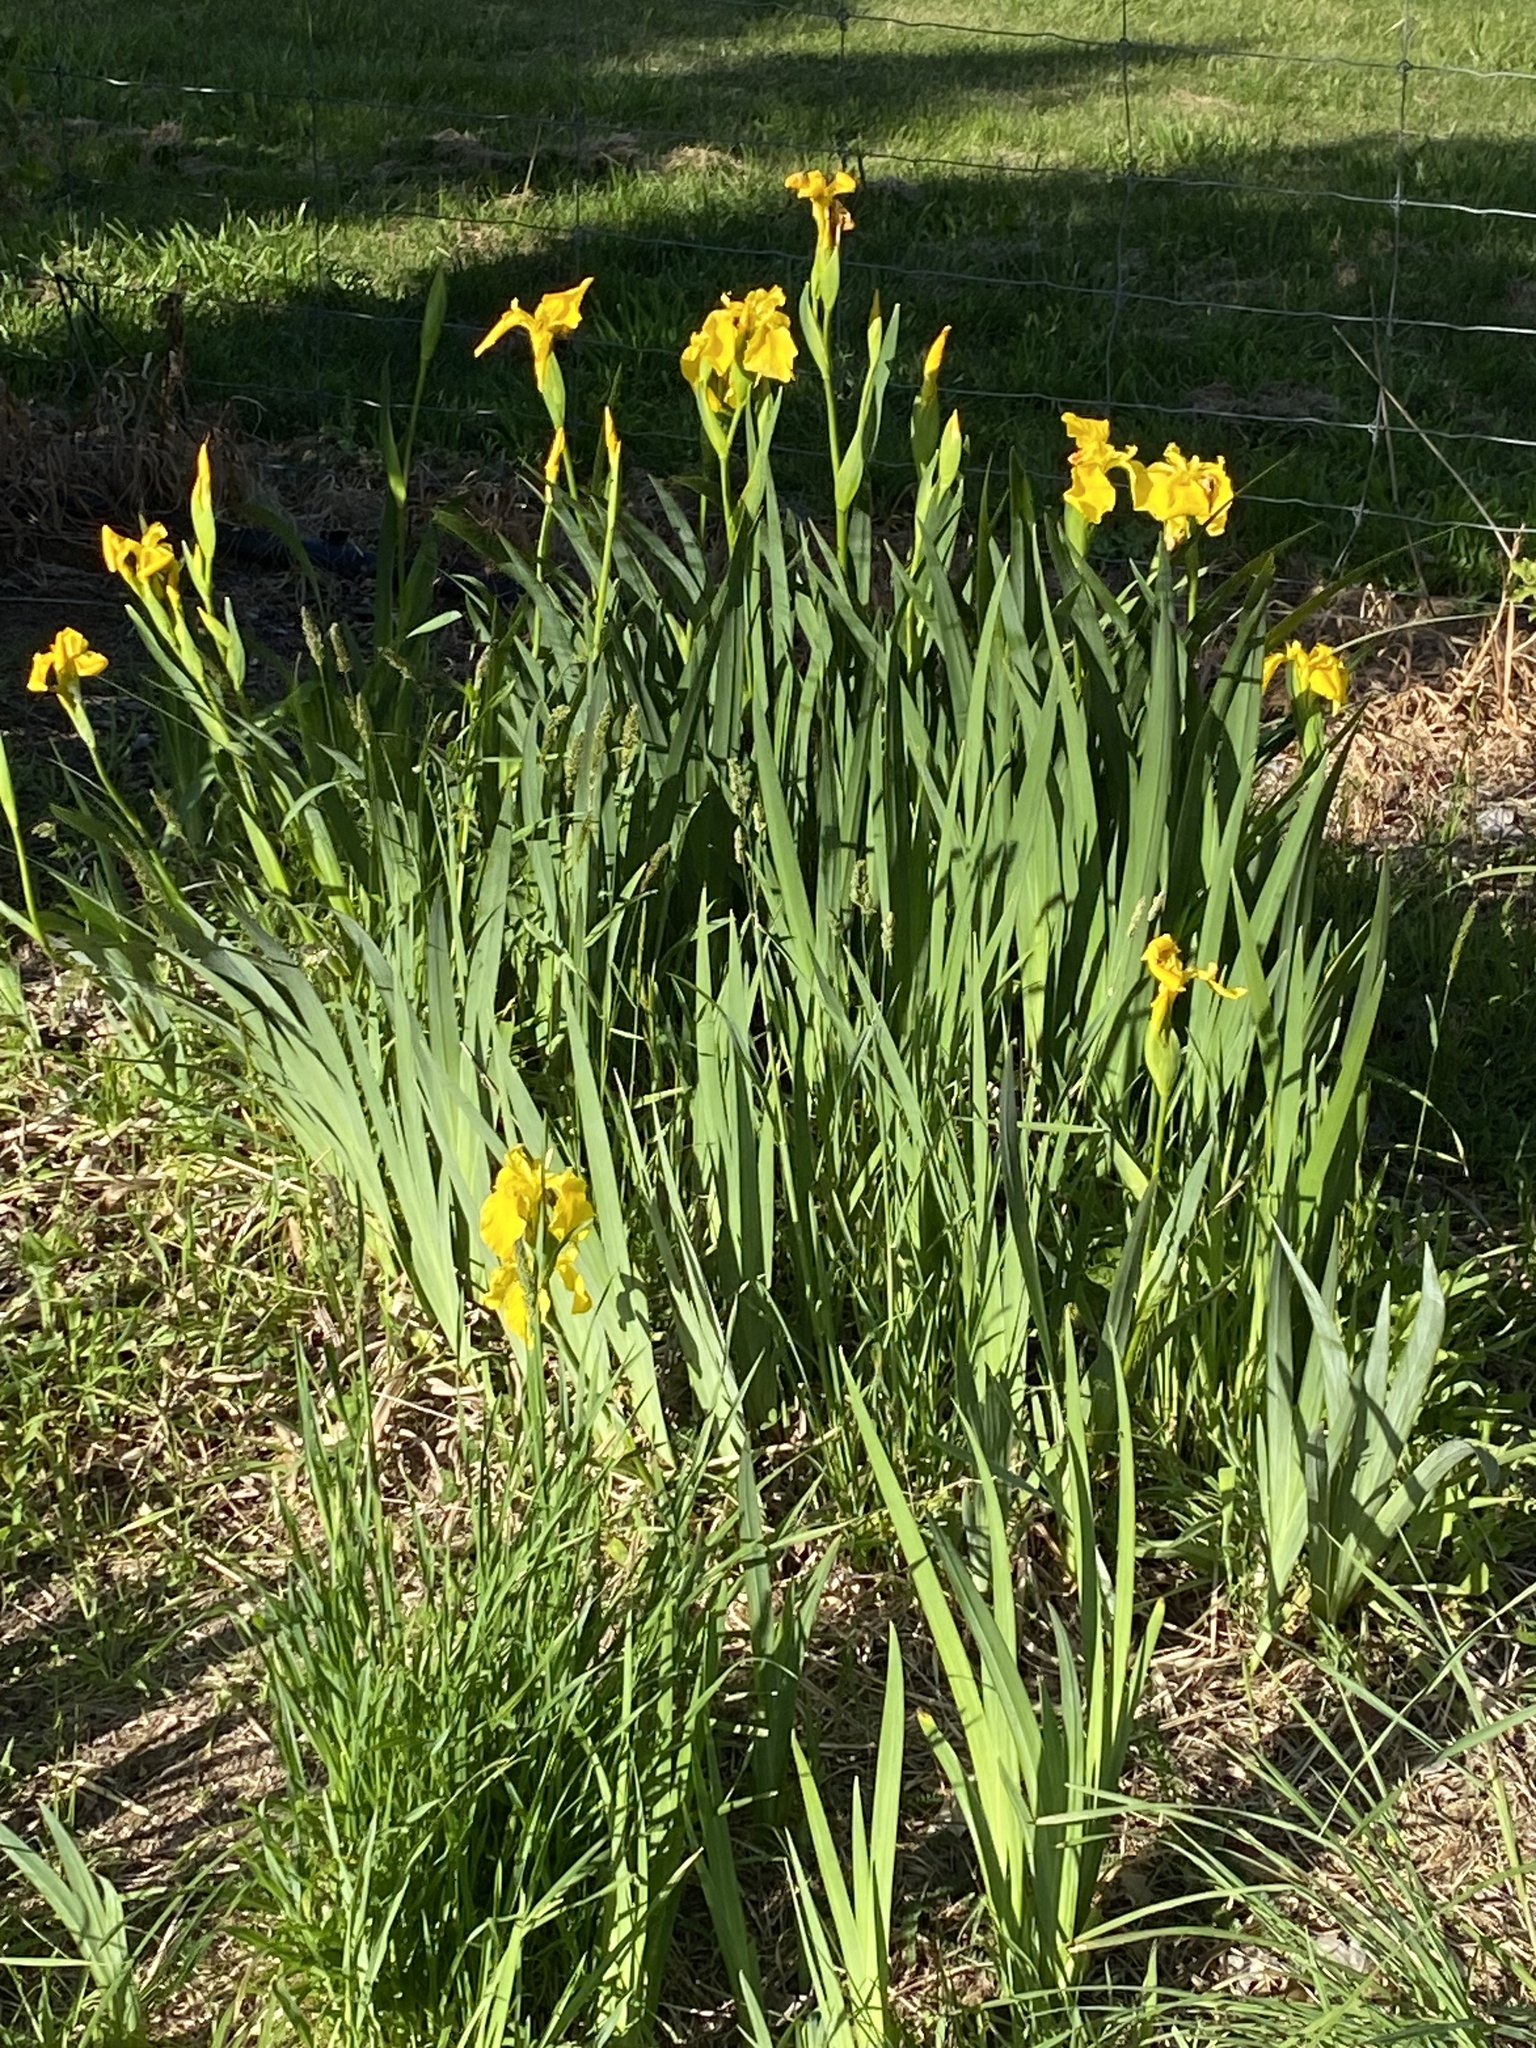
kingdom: Plantae
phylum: Tracheophyta
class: Liliopsida
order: Asparagales
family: Iridaceae
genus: Iris
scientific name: Iris pseudacorus
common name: Yellow flag
